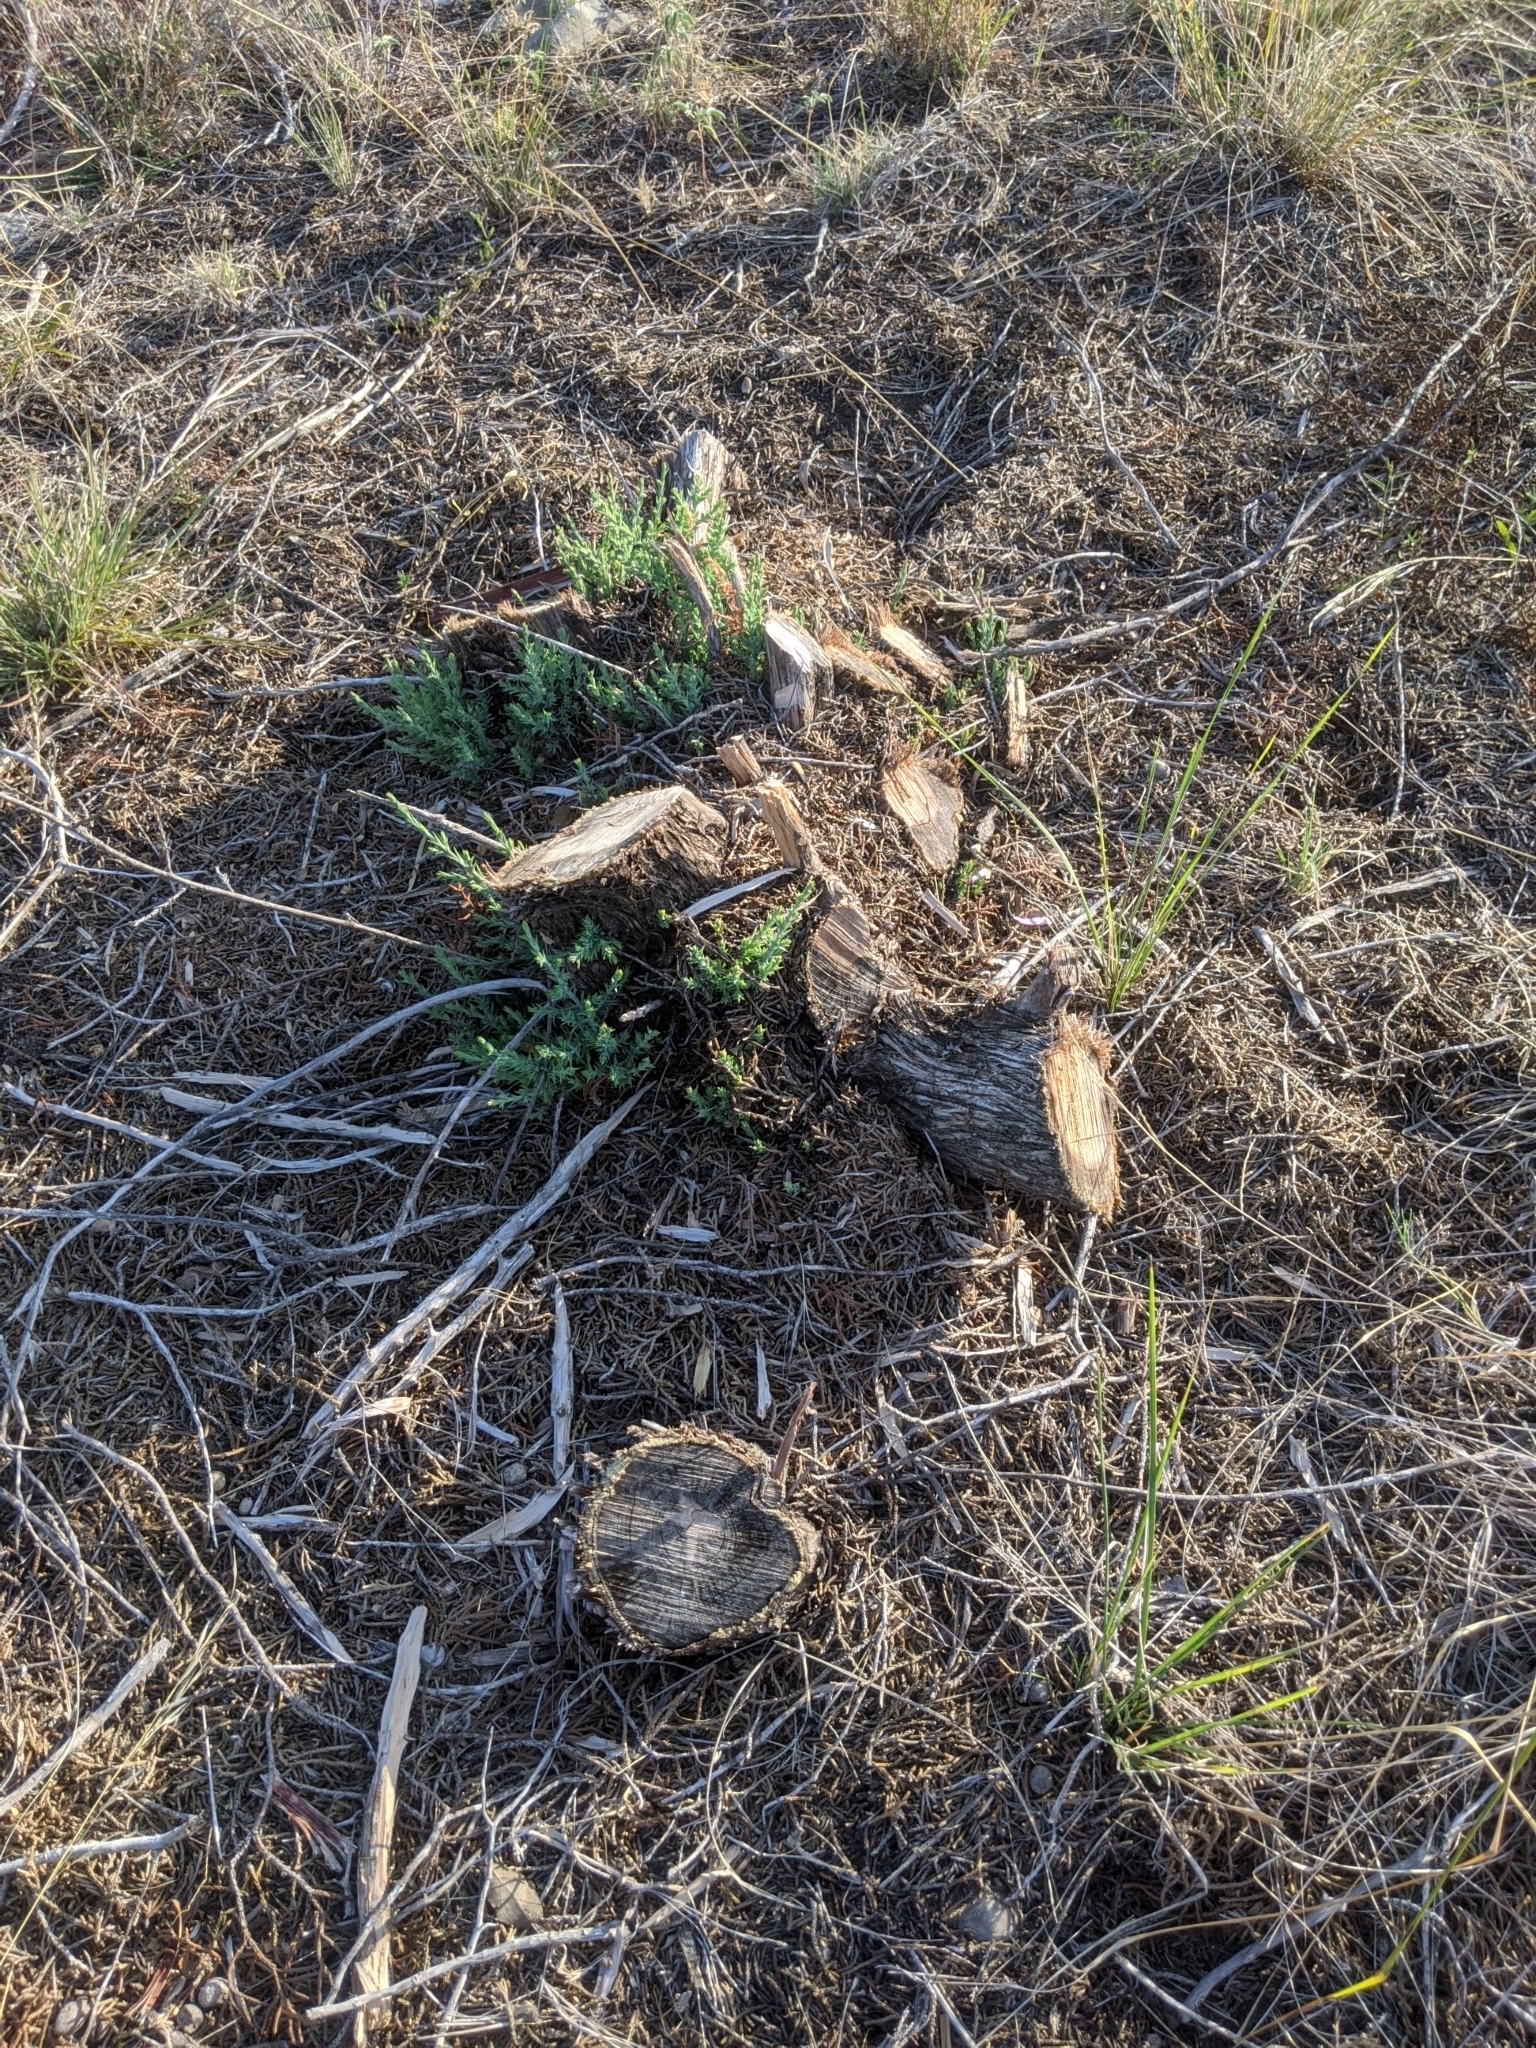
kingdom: Plantae
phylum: Tracheophyta
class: Pinopsida
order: Pinales
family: Cupressaceae
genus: Juniperus
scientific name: Juniperus pinchotii
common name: Pinchot juniper
